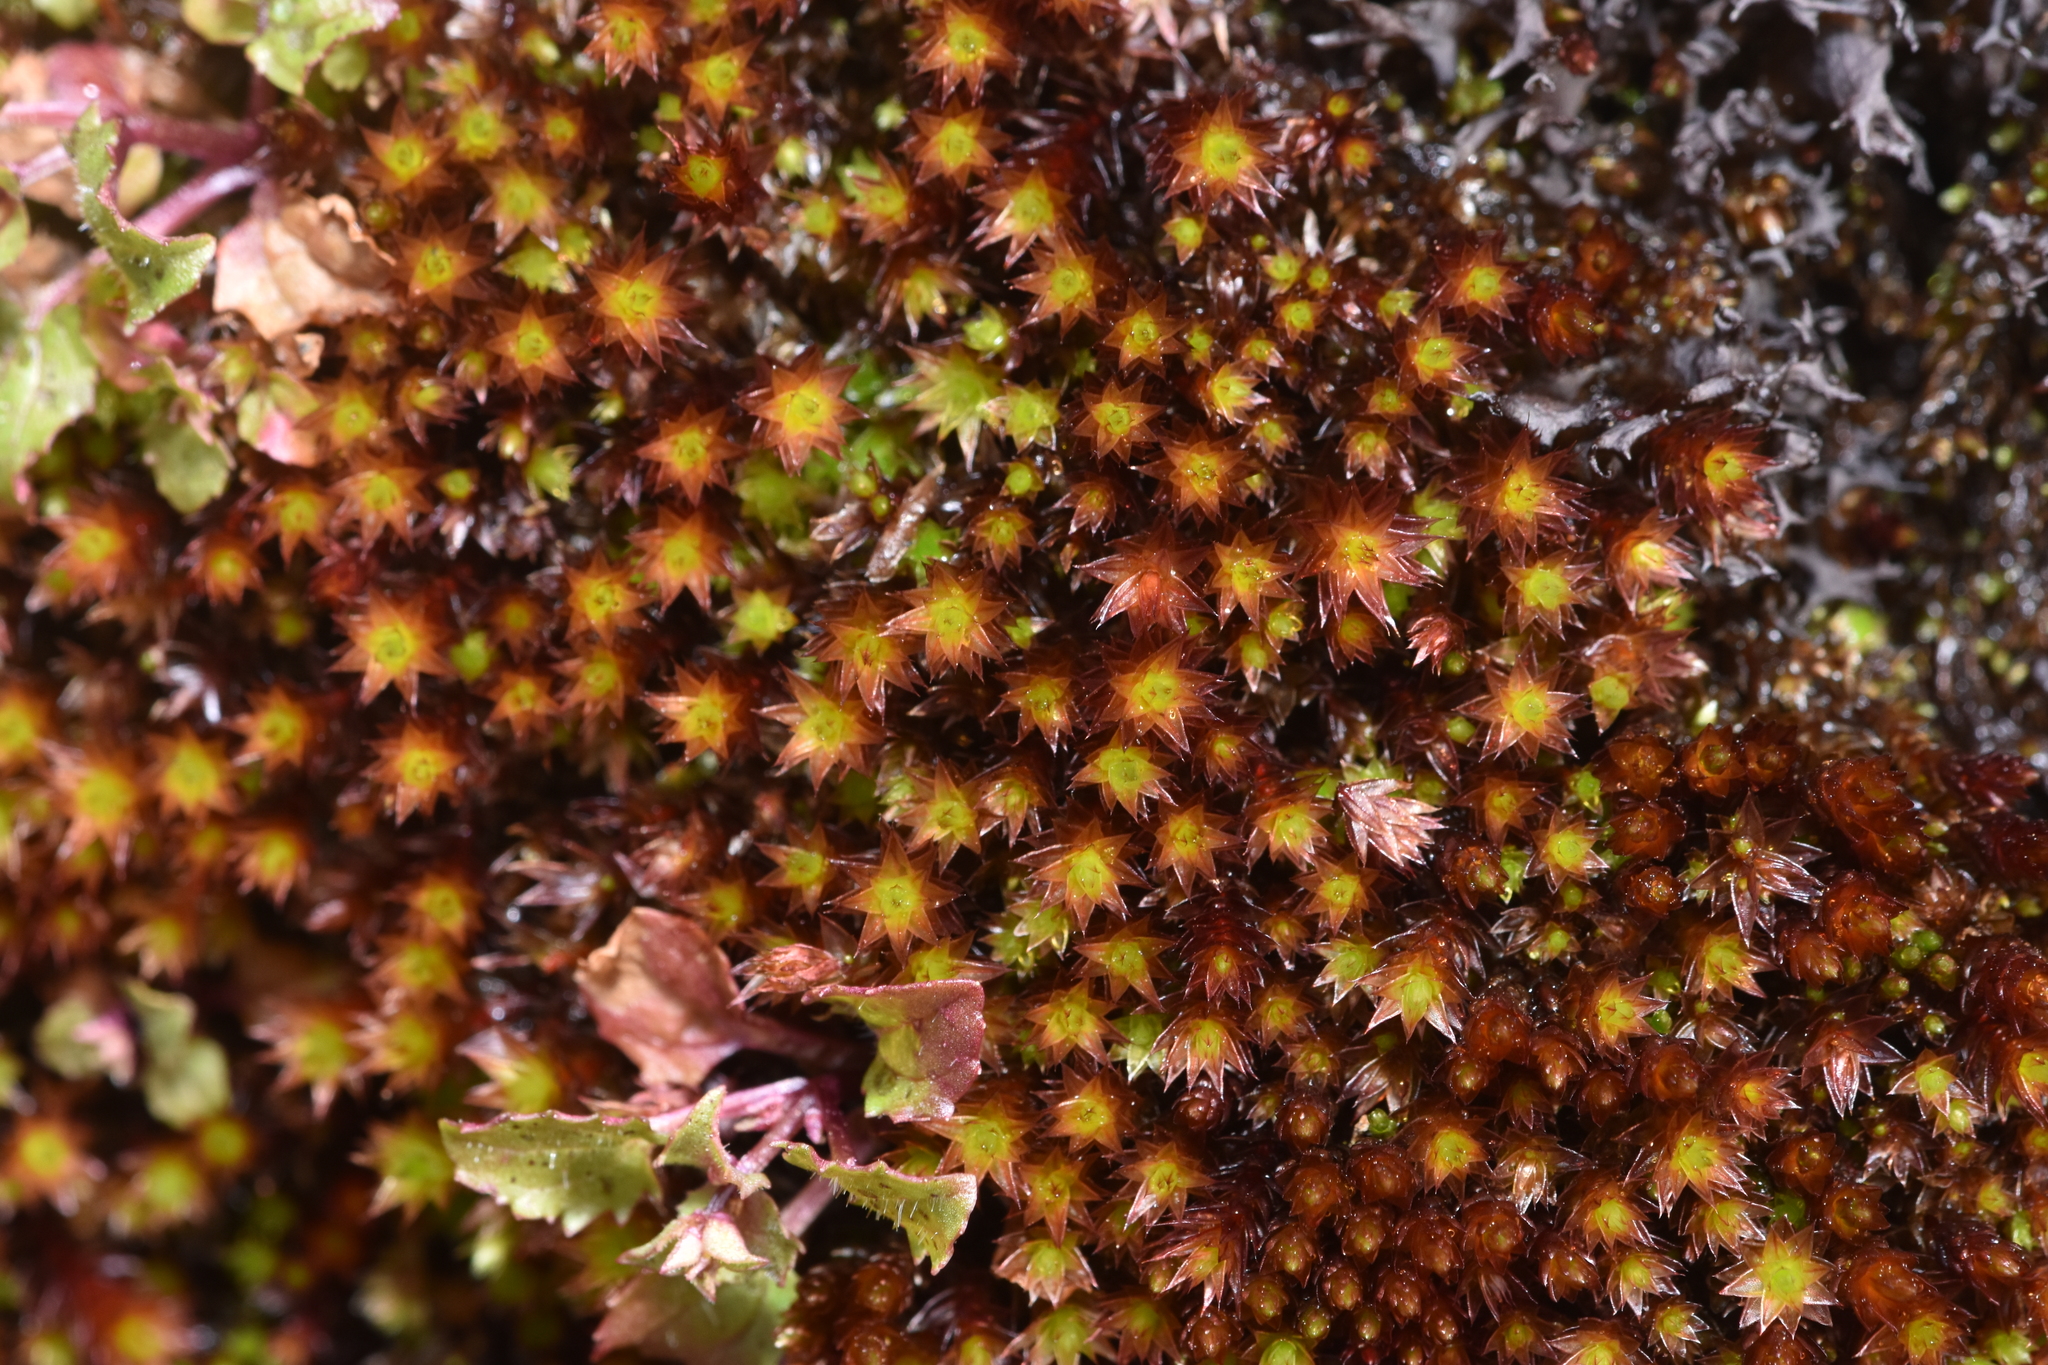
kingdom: Plantae
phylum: Bryophyta
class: Bryopsida
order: Bryales
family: Bryaceae
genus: Imbribryum
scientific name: Imbribryum torenii
